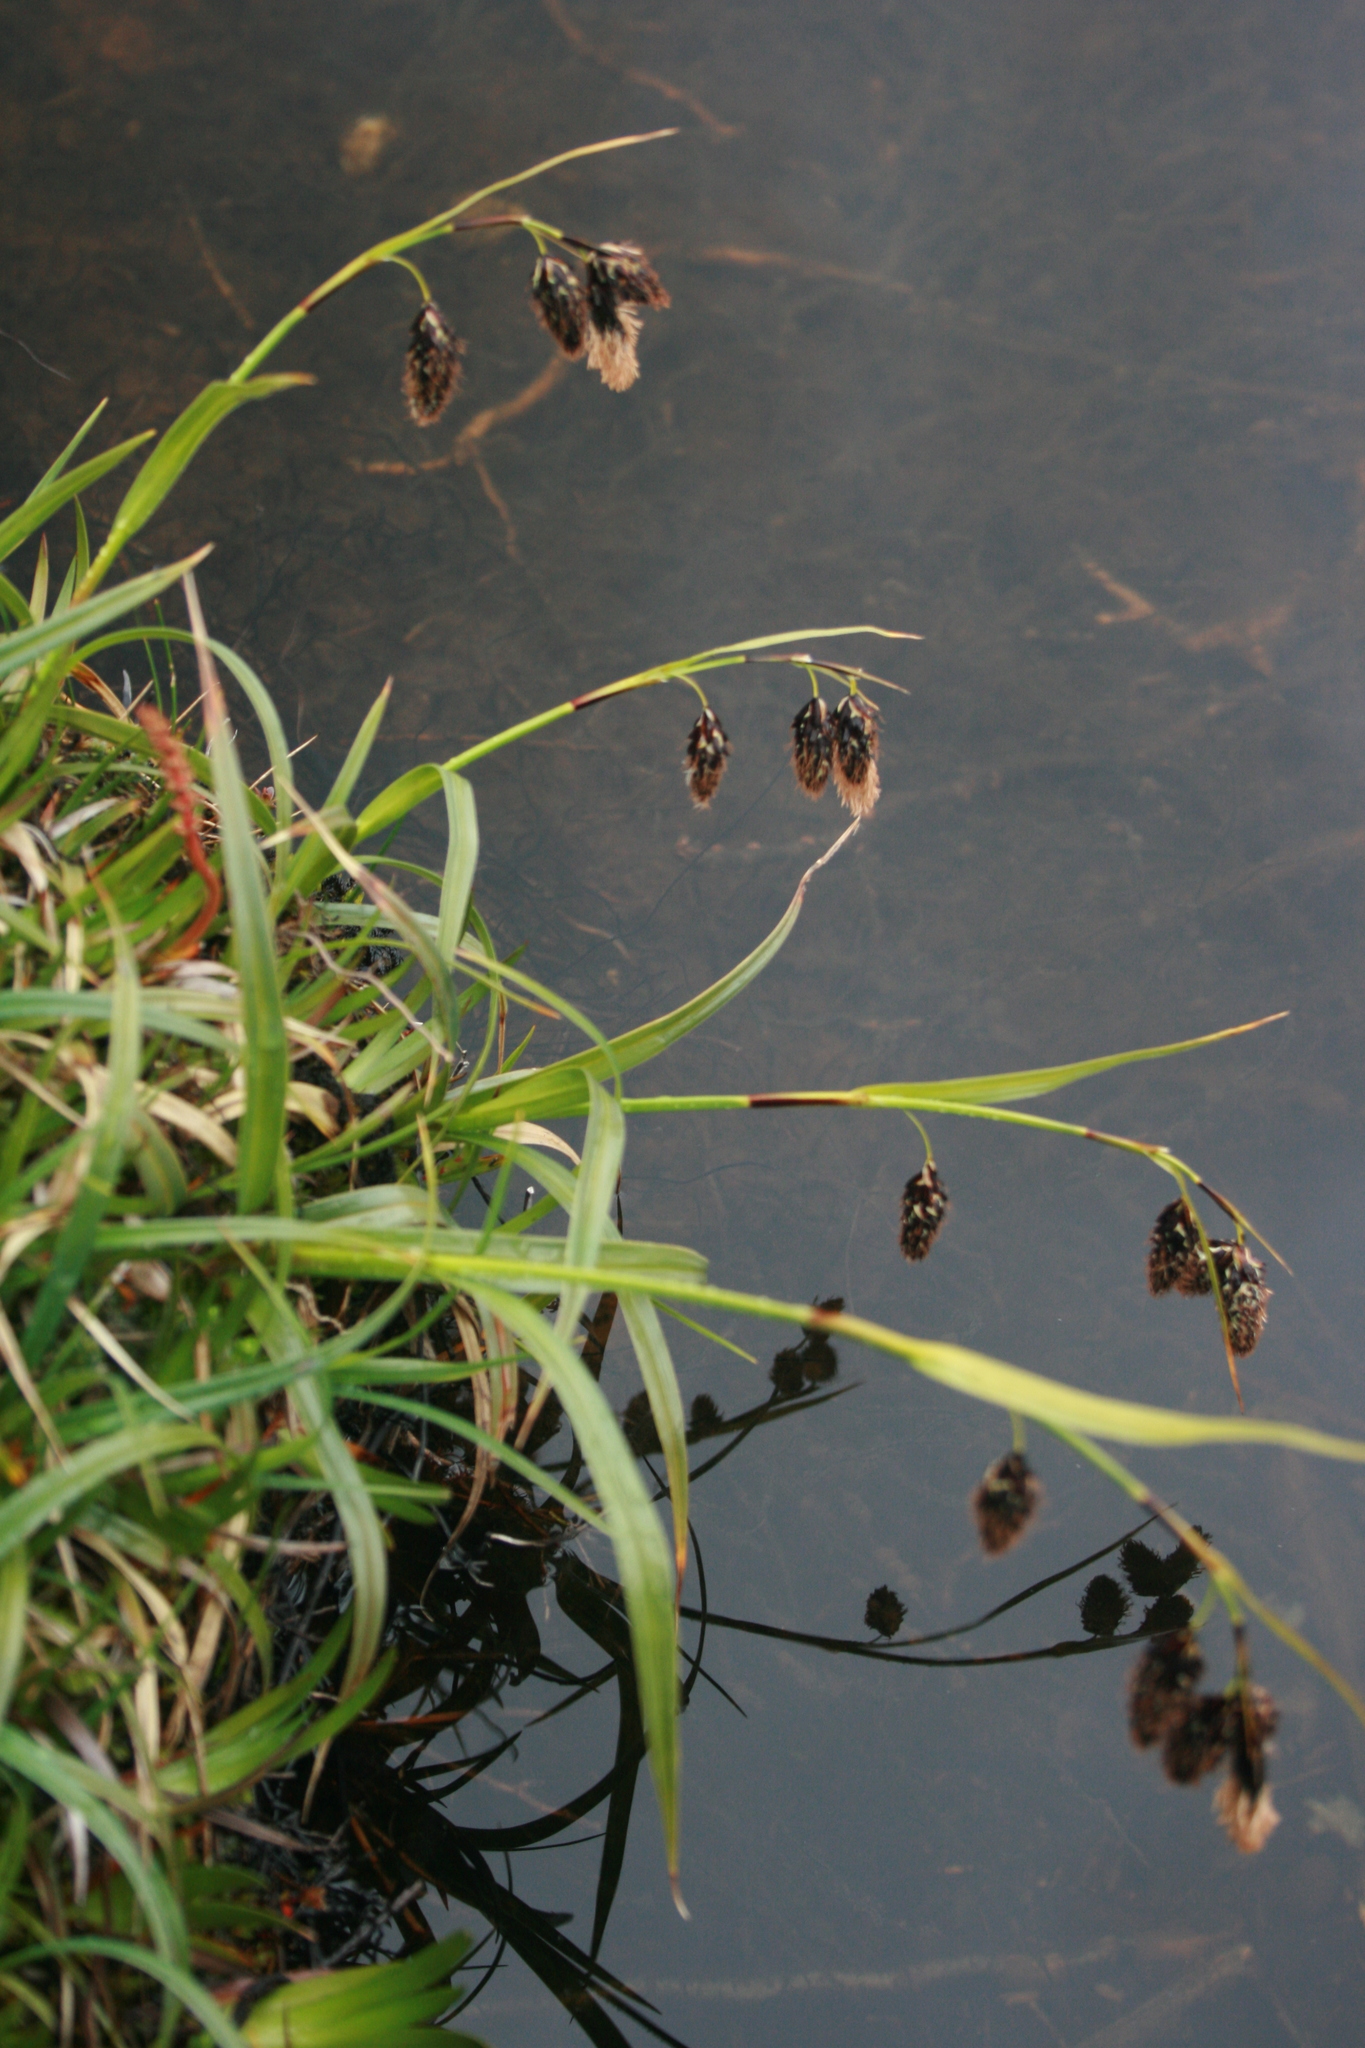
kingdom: Plantae
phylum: Tracheophyta
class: Liliopsida
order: Poales
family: Cyperaceae
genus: Carex
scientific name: Carex banksii
